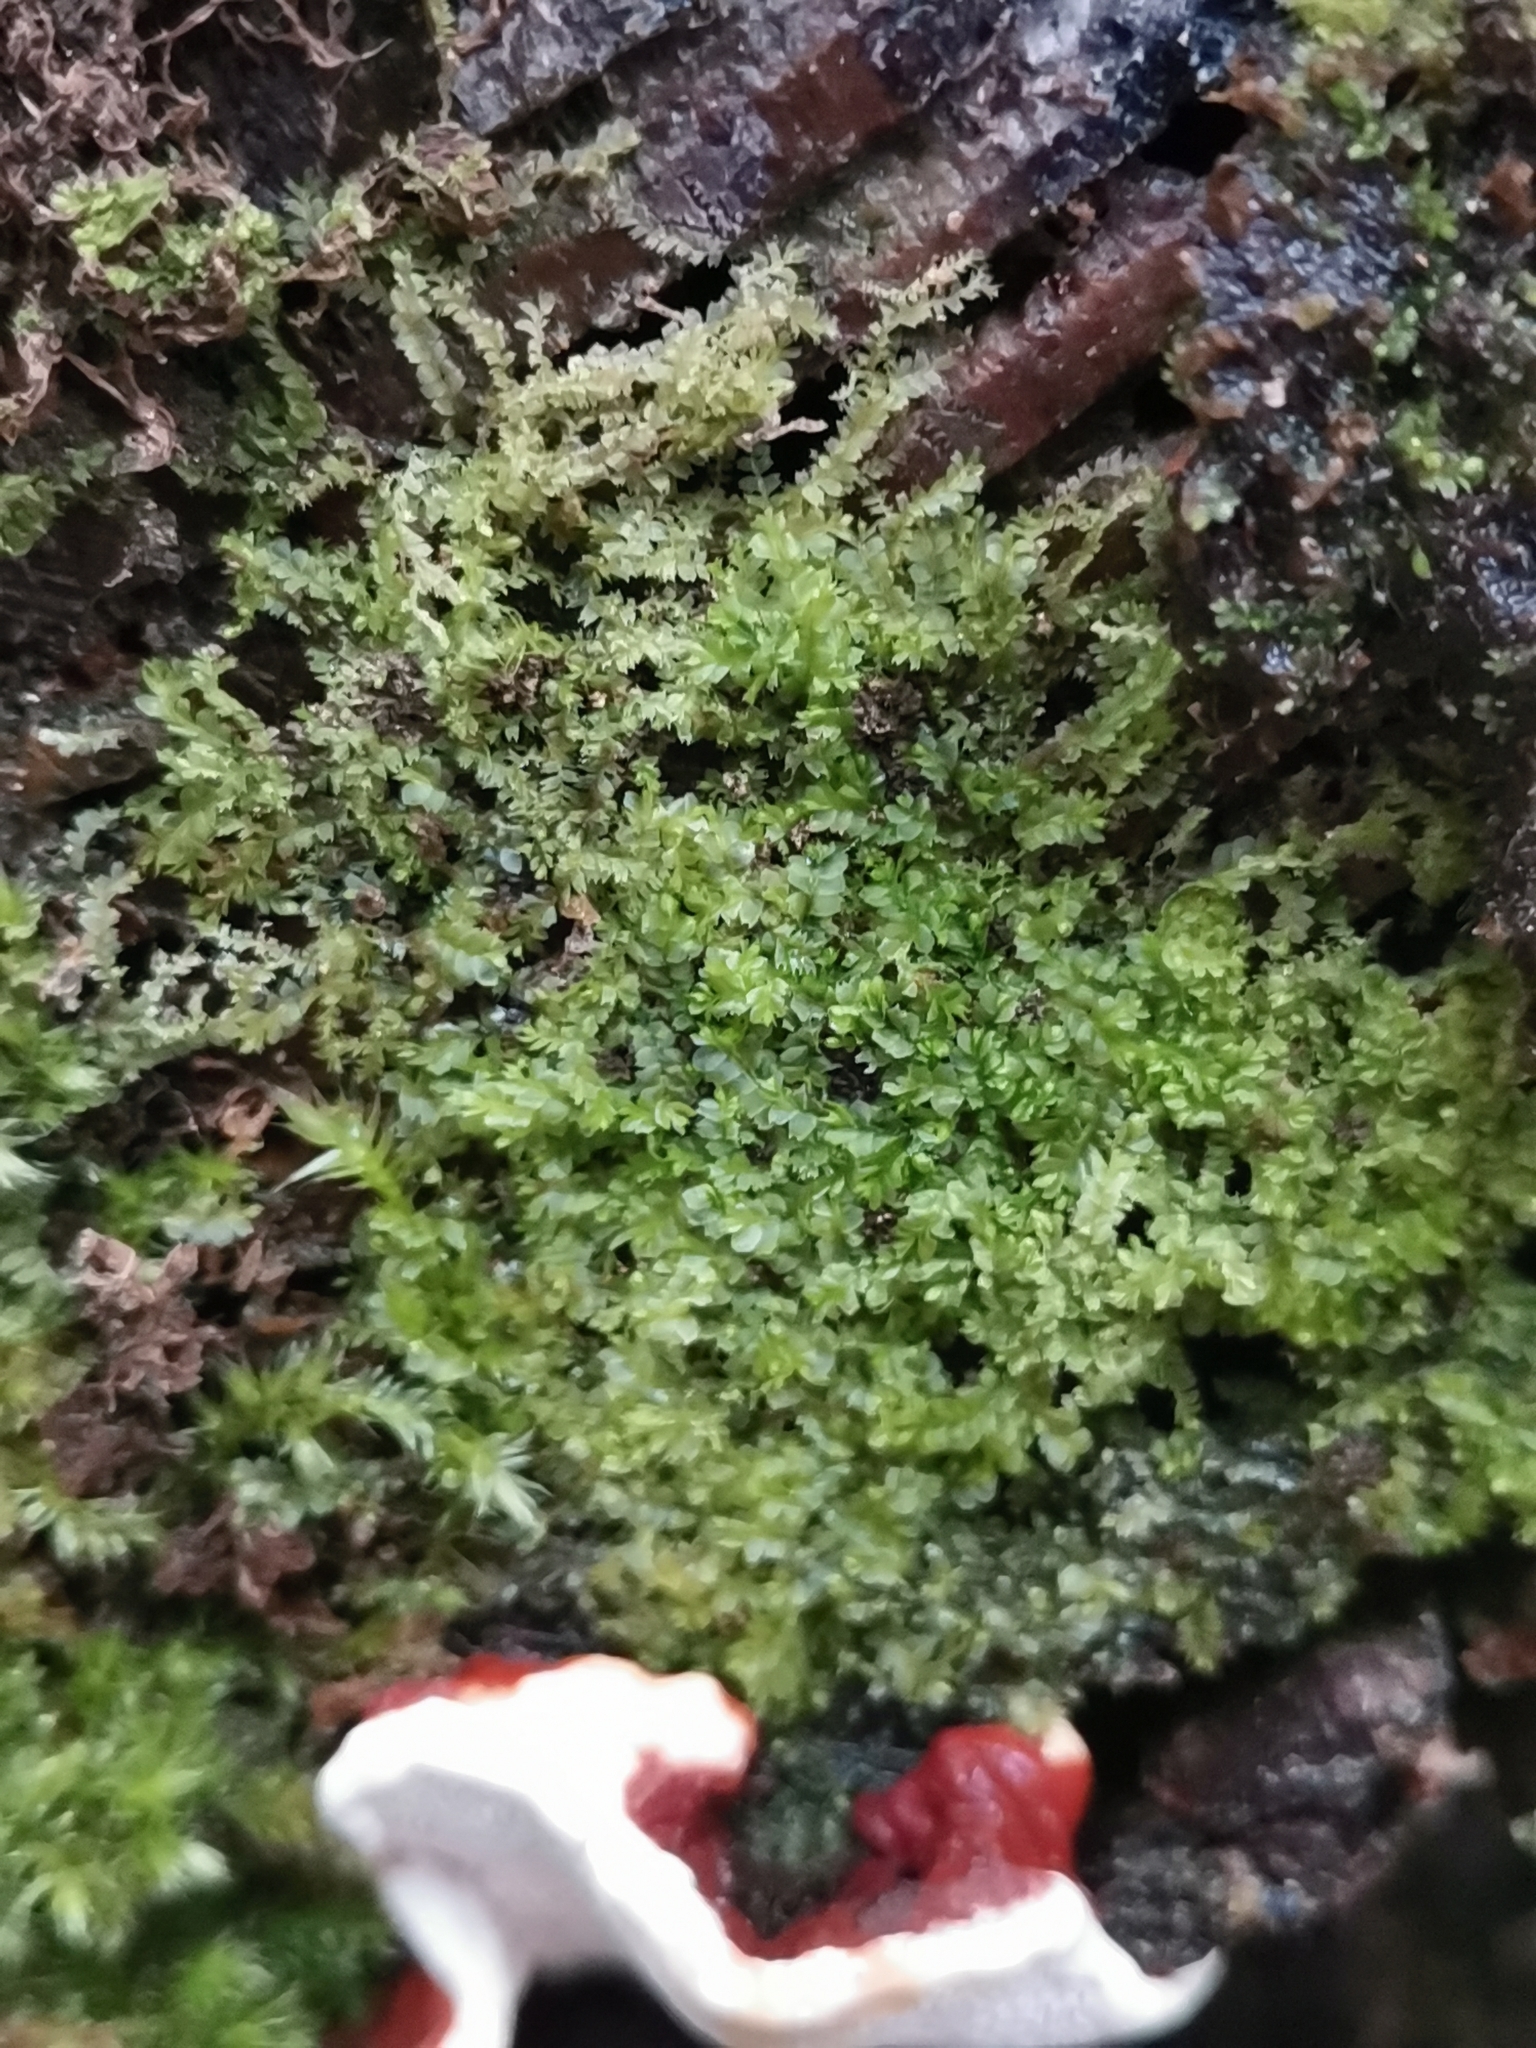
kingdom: Plantae
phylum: Marchantiophyta
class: Jungermanniopsida
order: Jungermanniales
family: Lophocoleaceae
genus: Lophocolea
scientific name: Lophocolea heterophylla
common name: Variable-leaved crestwort
